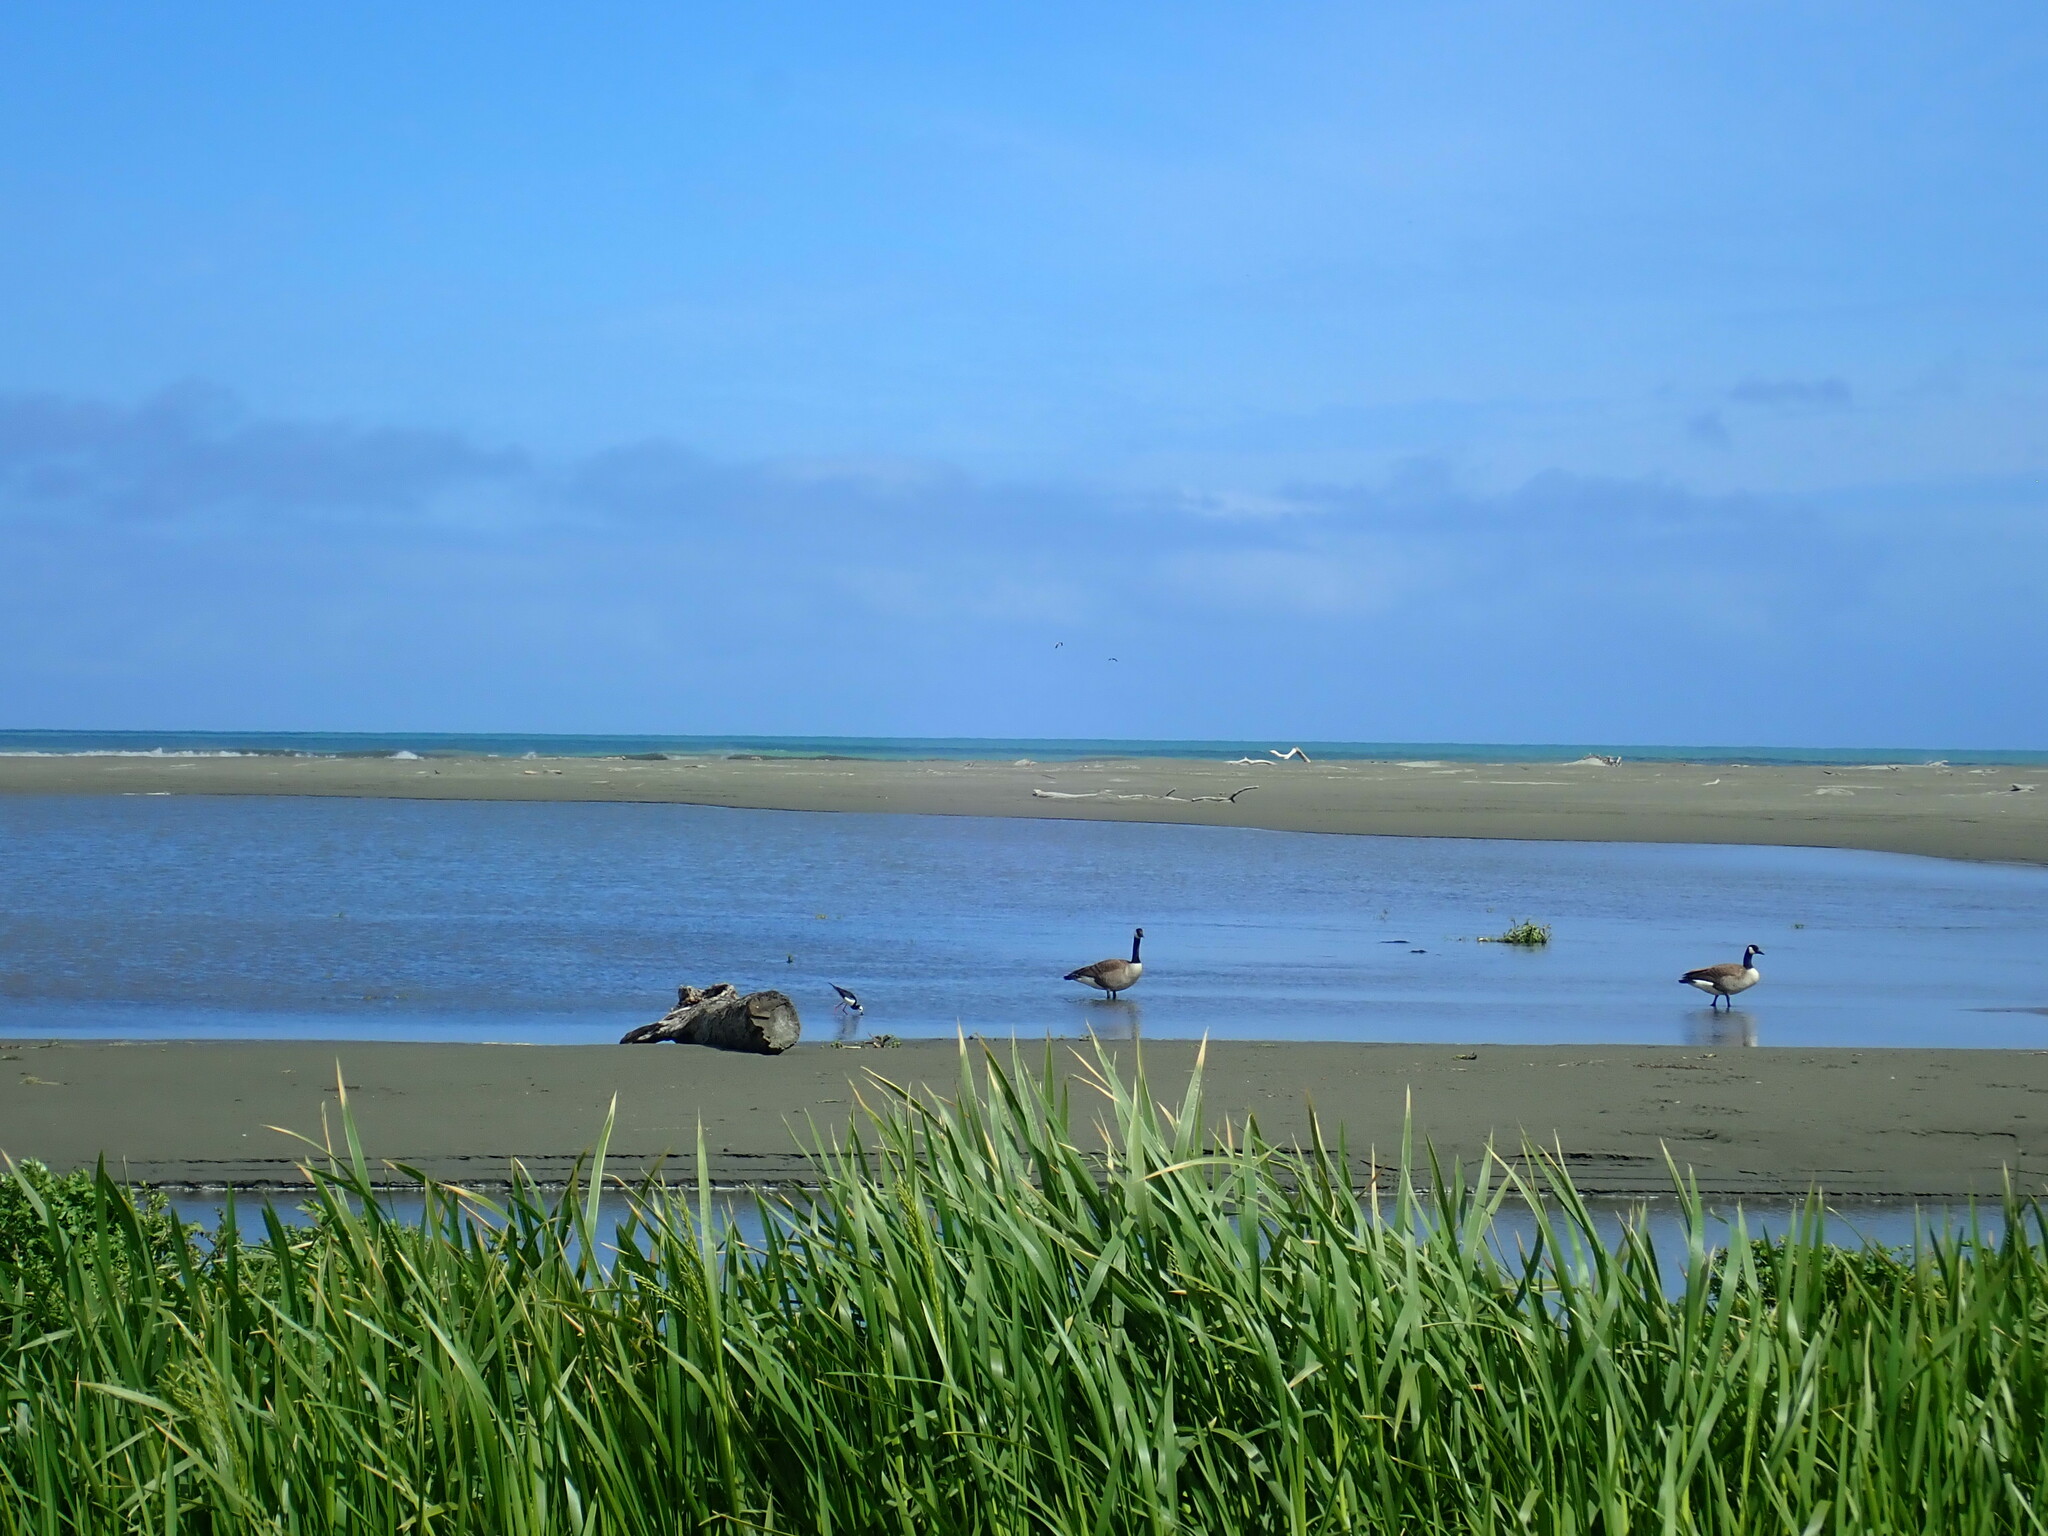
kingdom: Animalia
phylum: Chordata
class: Aves
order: Anseriformes
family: Anatidae
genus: Branta
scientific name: Branta canadensis
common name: Canada goose
